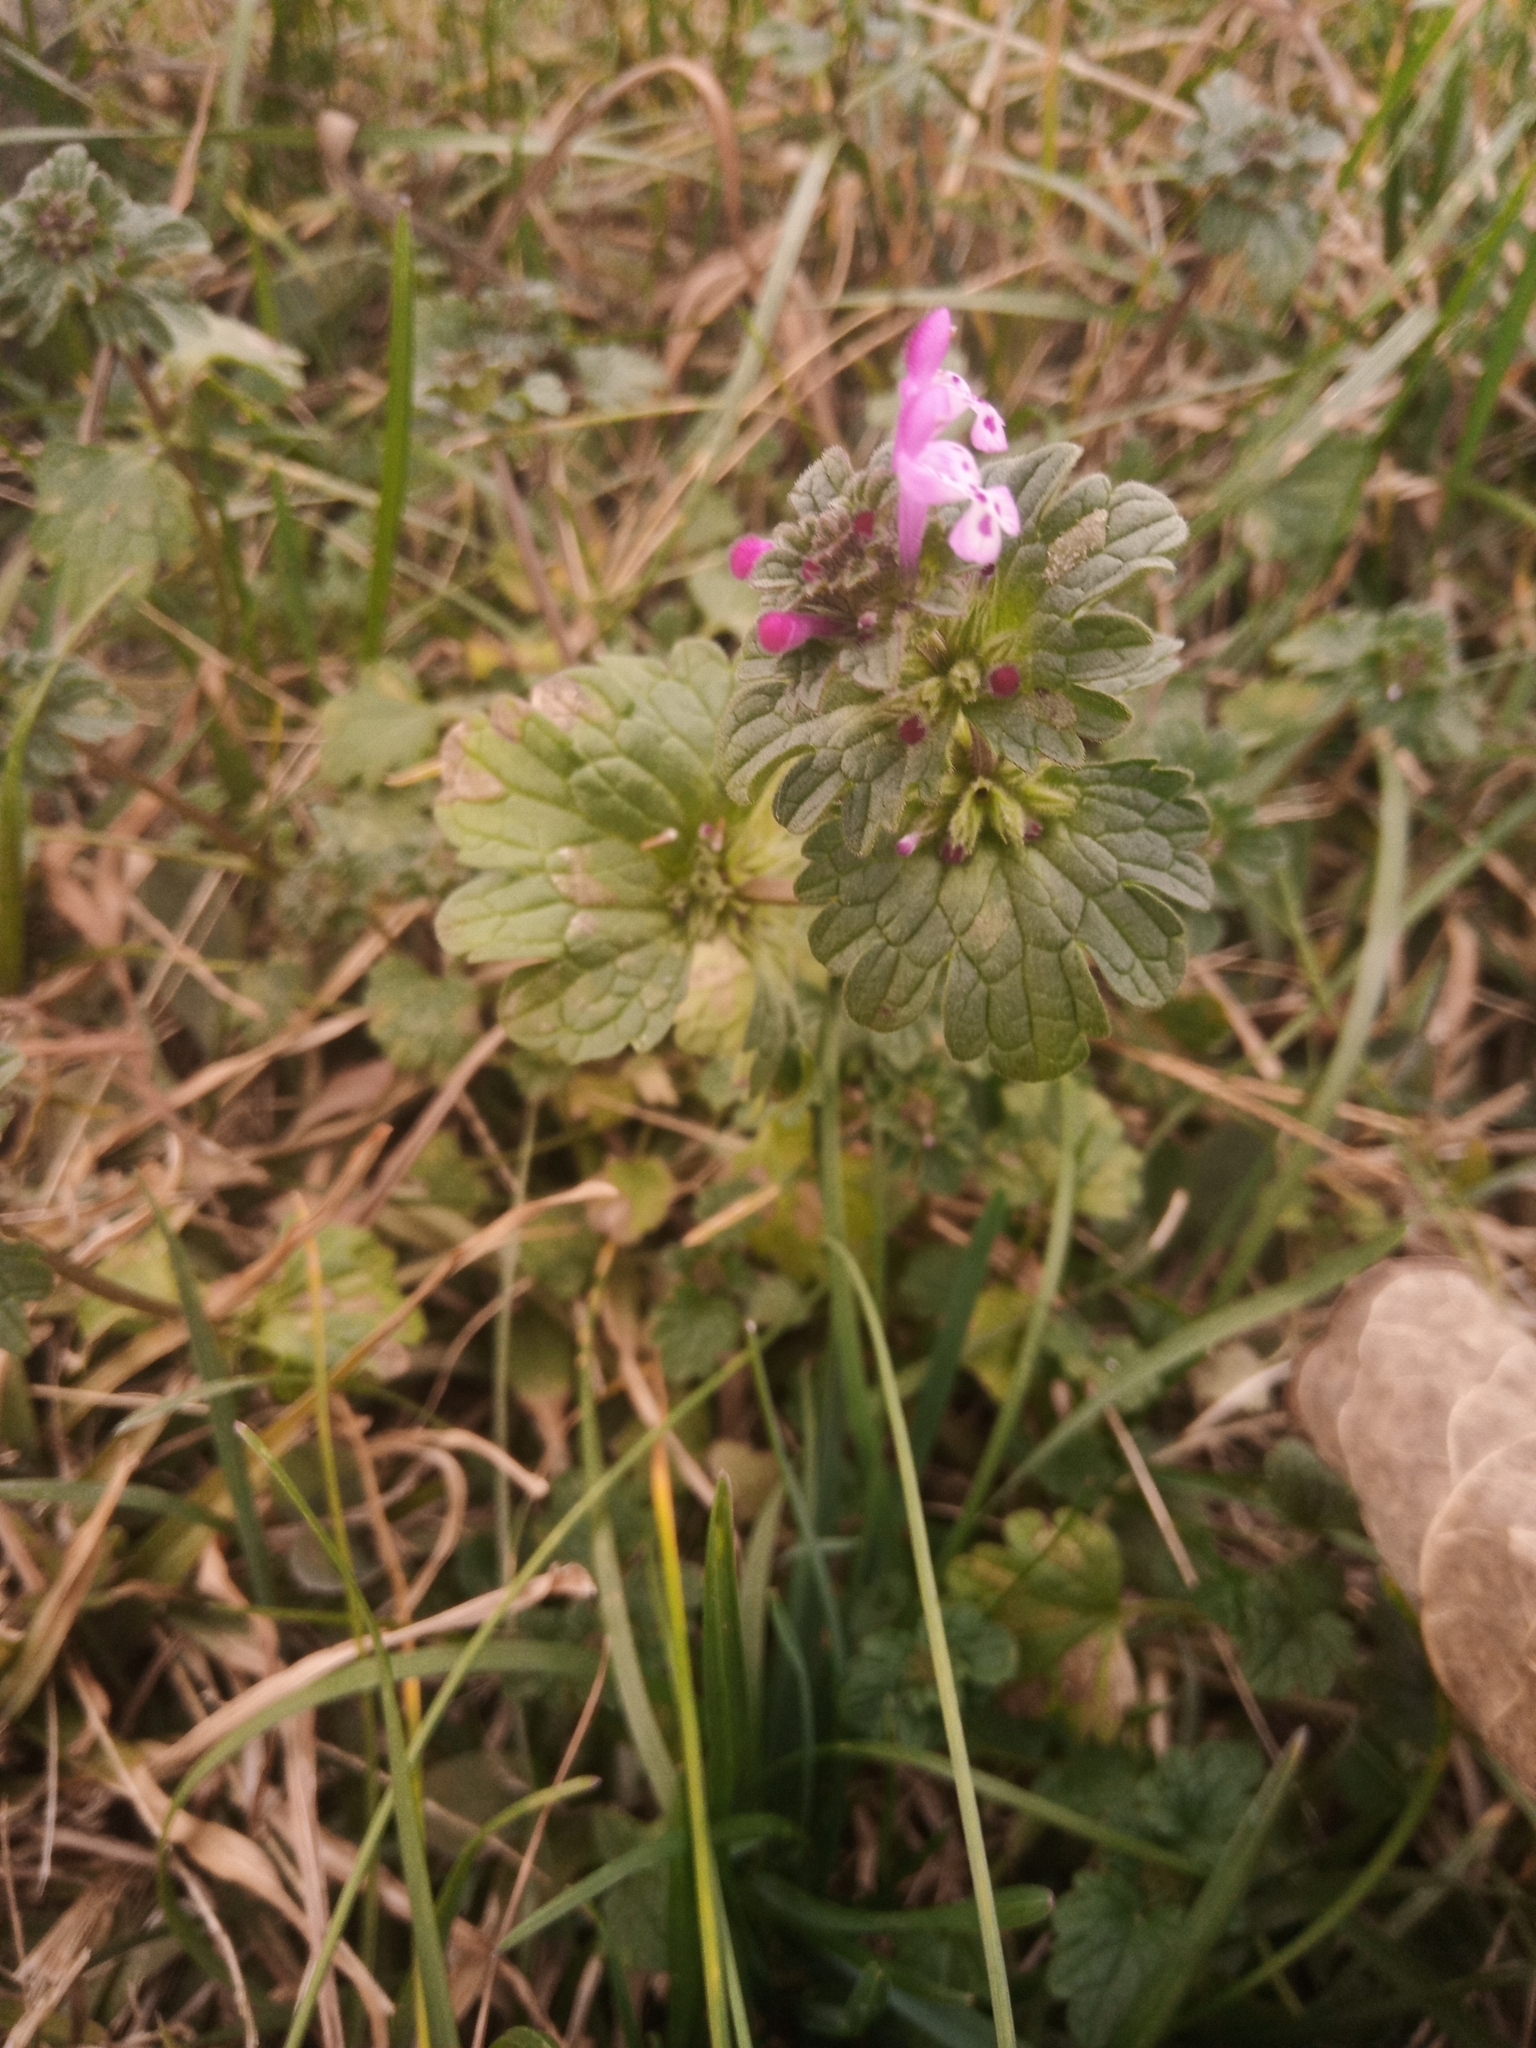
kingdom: Plantae
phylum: Tracheophyta
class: Magnoliopsida
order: Lamiales
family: Lamiaceae
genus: Lamium
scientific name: Lamium amplexicaule
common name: Henbit dead-nettle
